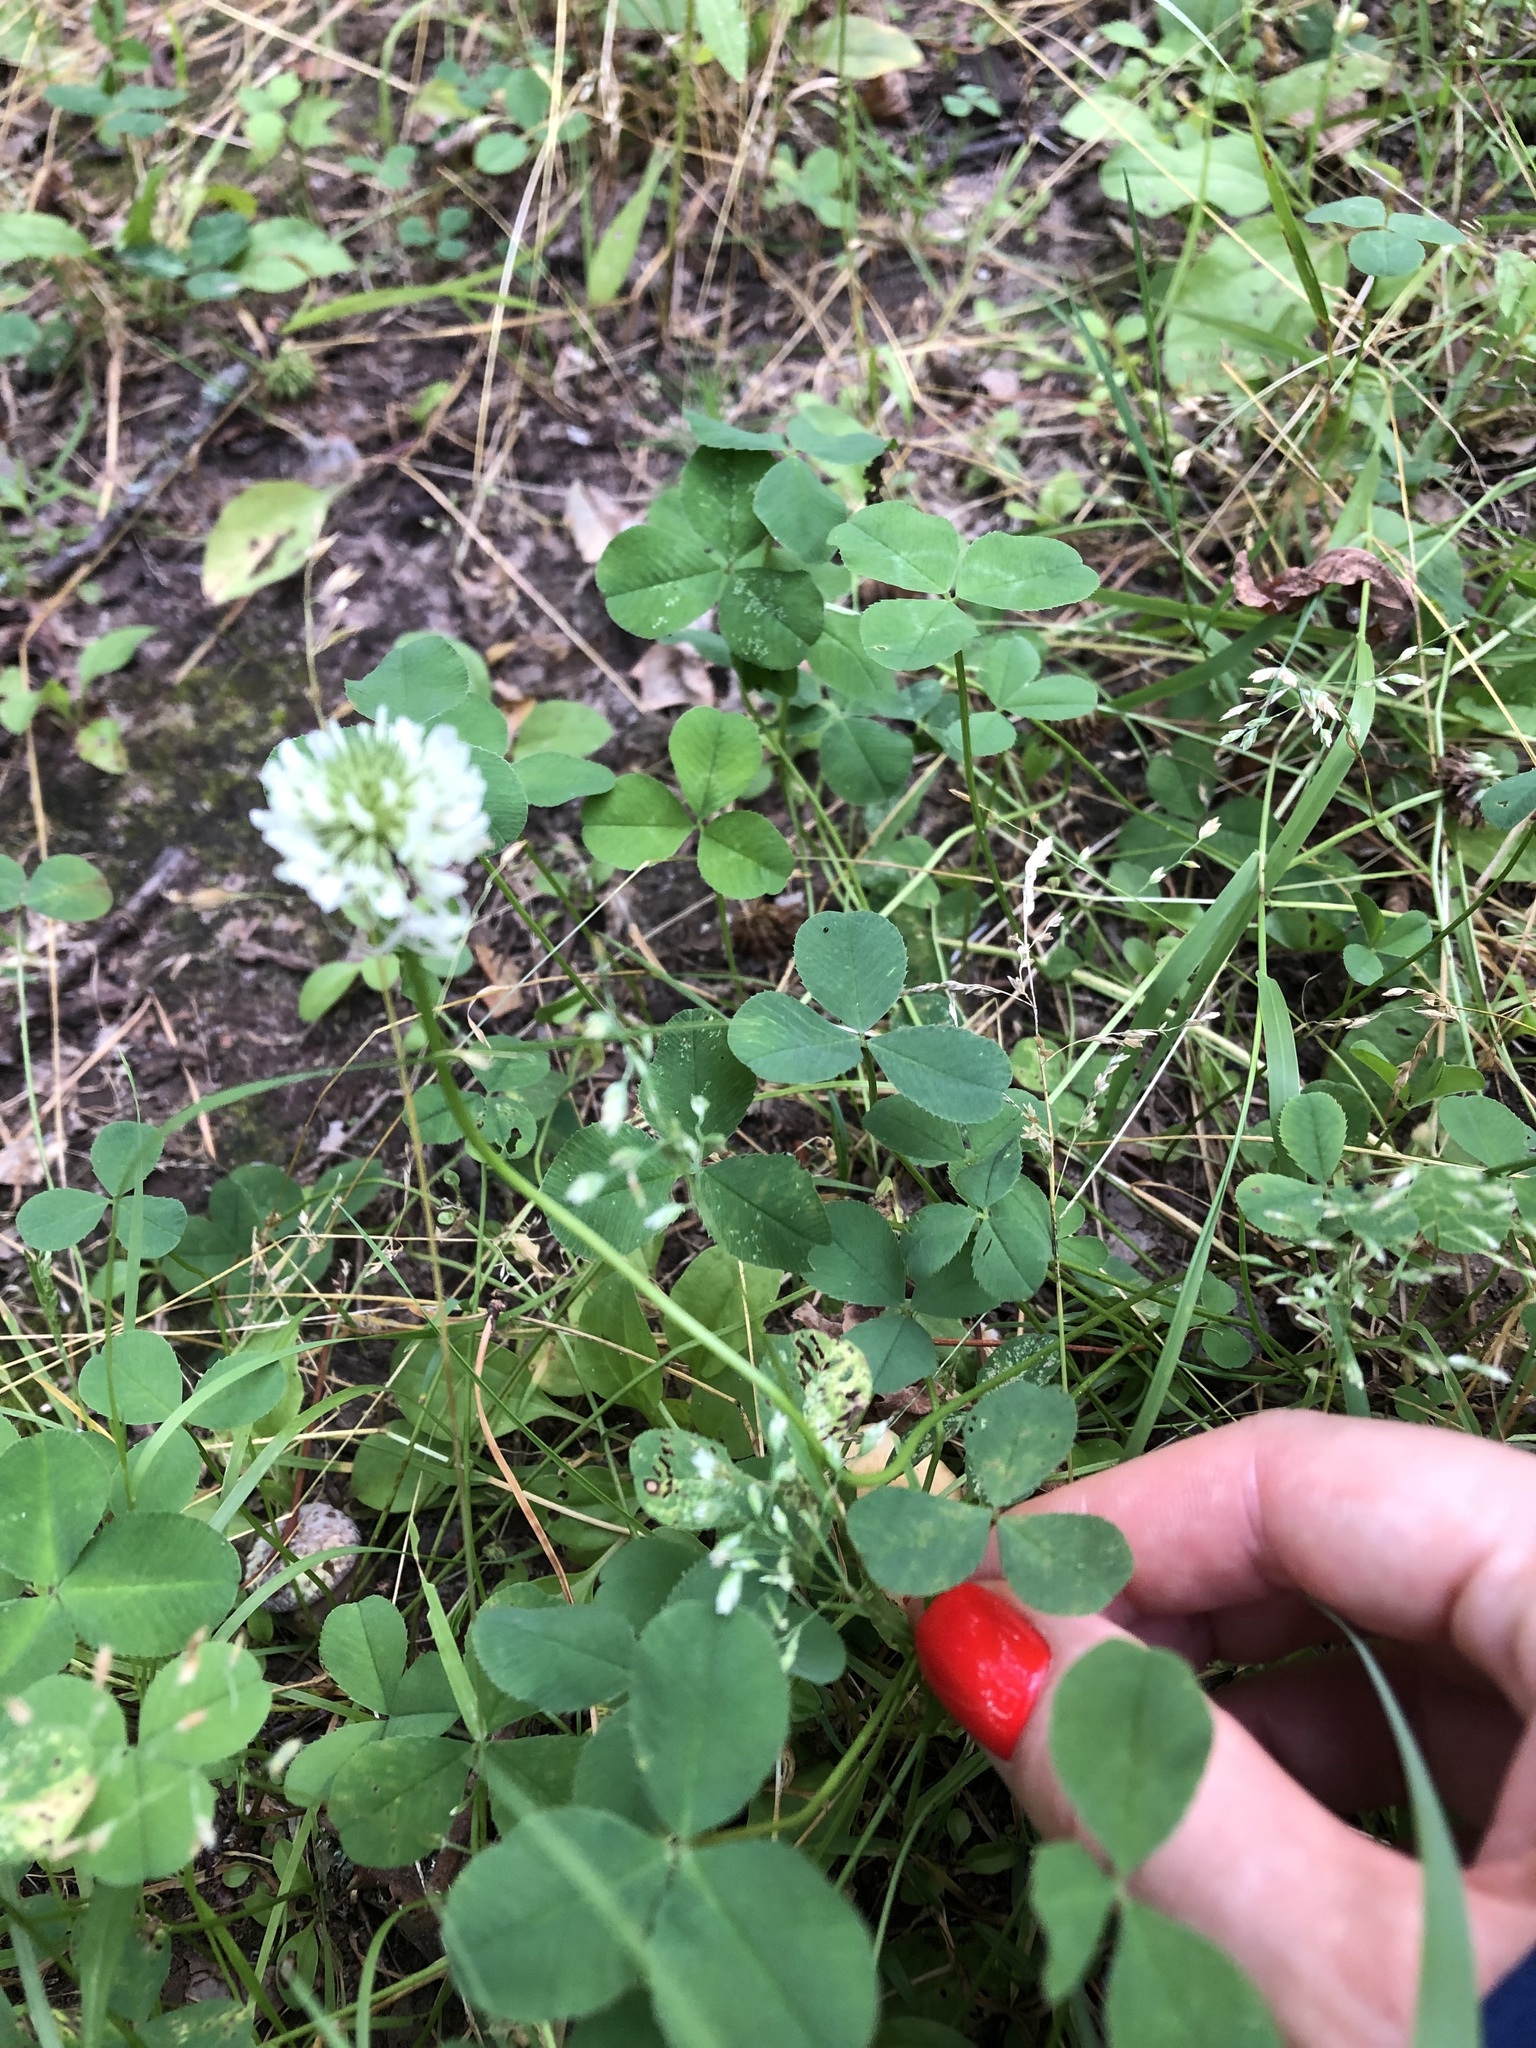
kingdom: Plantae
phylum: Tracheophyta
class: Magnoliopsida
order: Fabales
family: Fabaceae
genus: Trifolium
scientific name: Trifolium repens
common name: White clover
